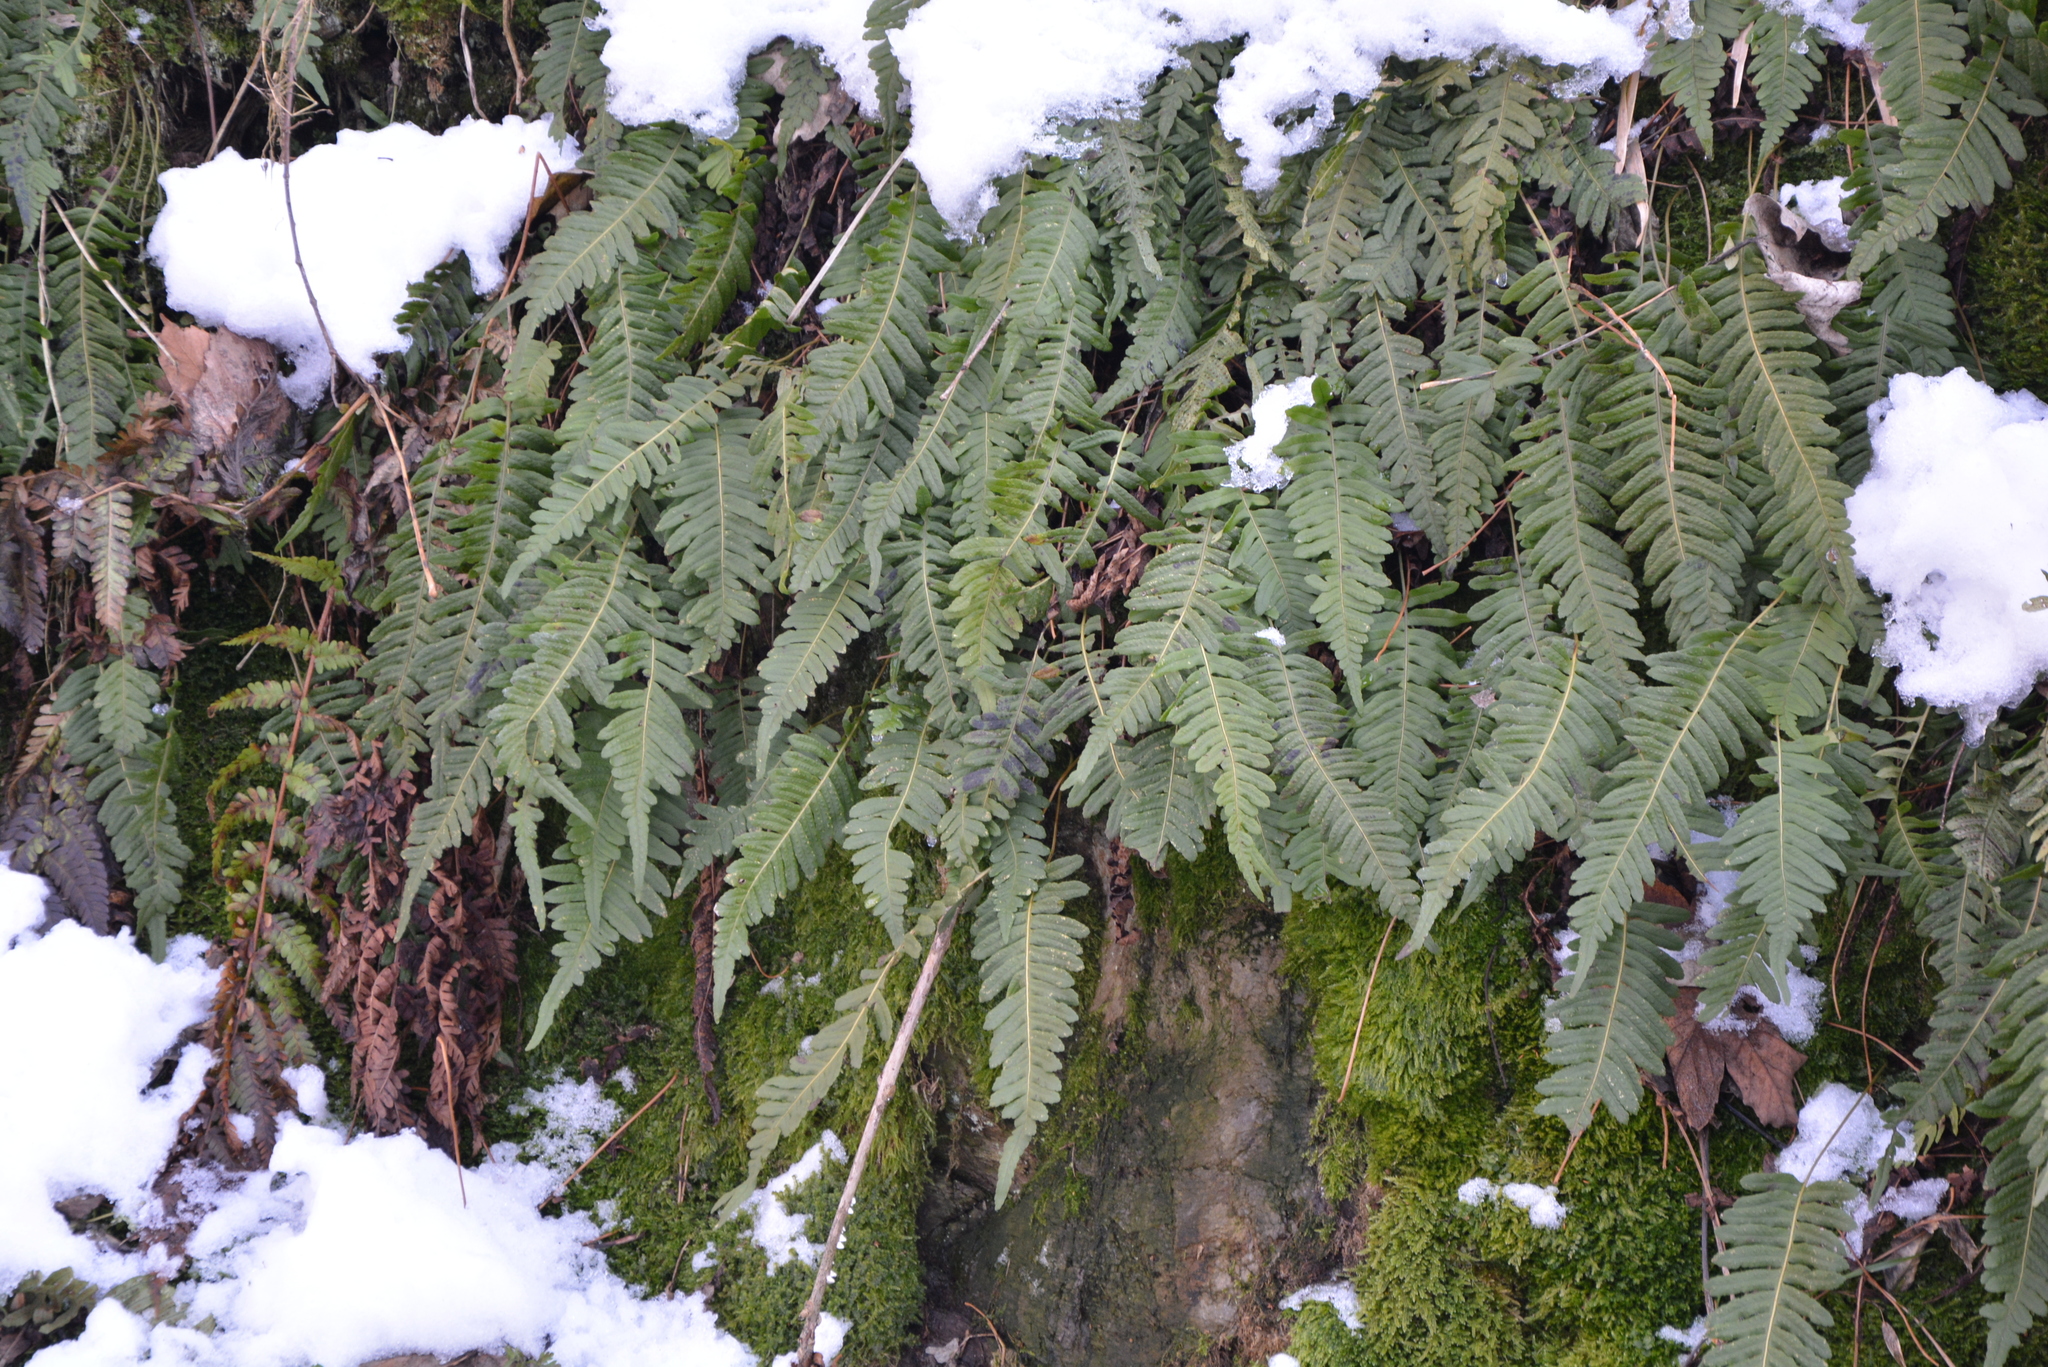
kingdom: Plantae
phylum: Tracheophyta
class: Polypodiopsida
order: Polypodiales
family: Polypodiaceae
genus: Polypodium
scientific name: Polypodium vulgare
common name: Common polypody
